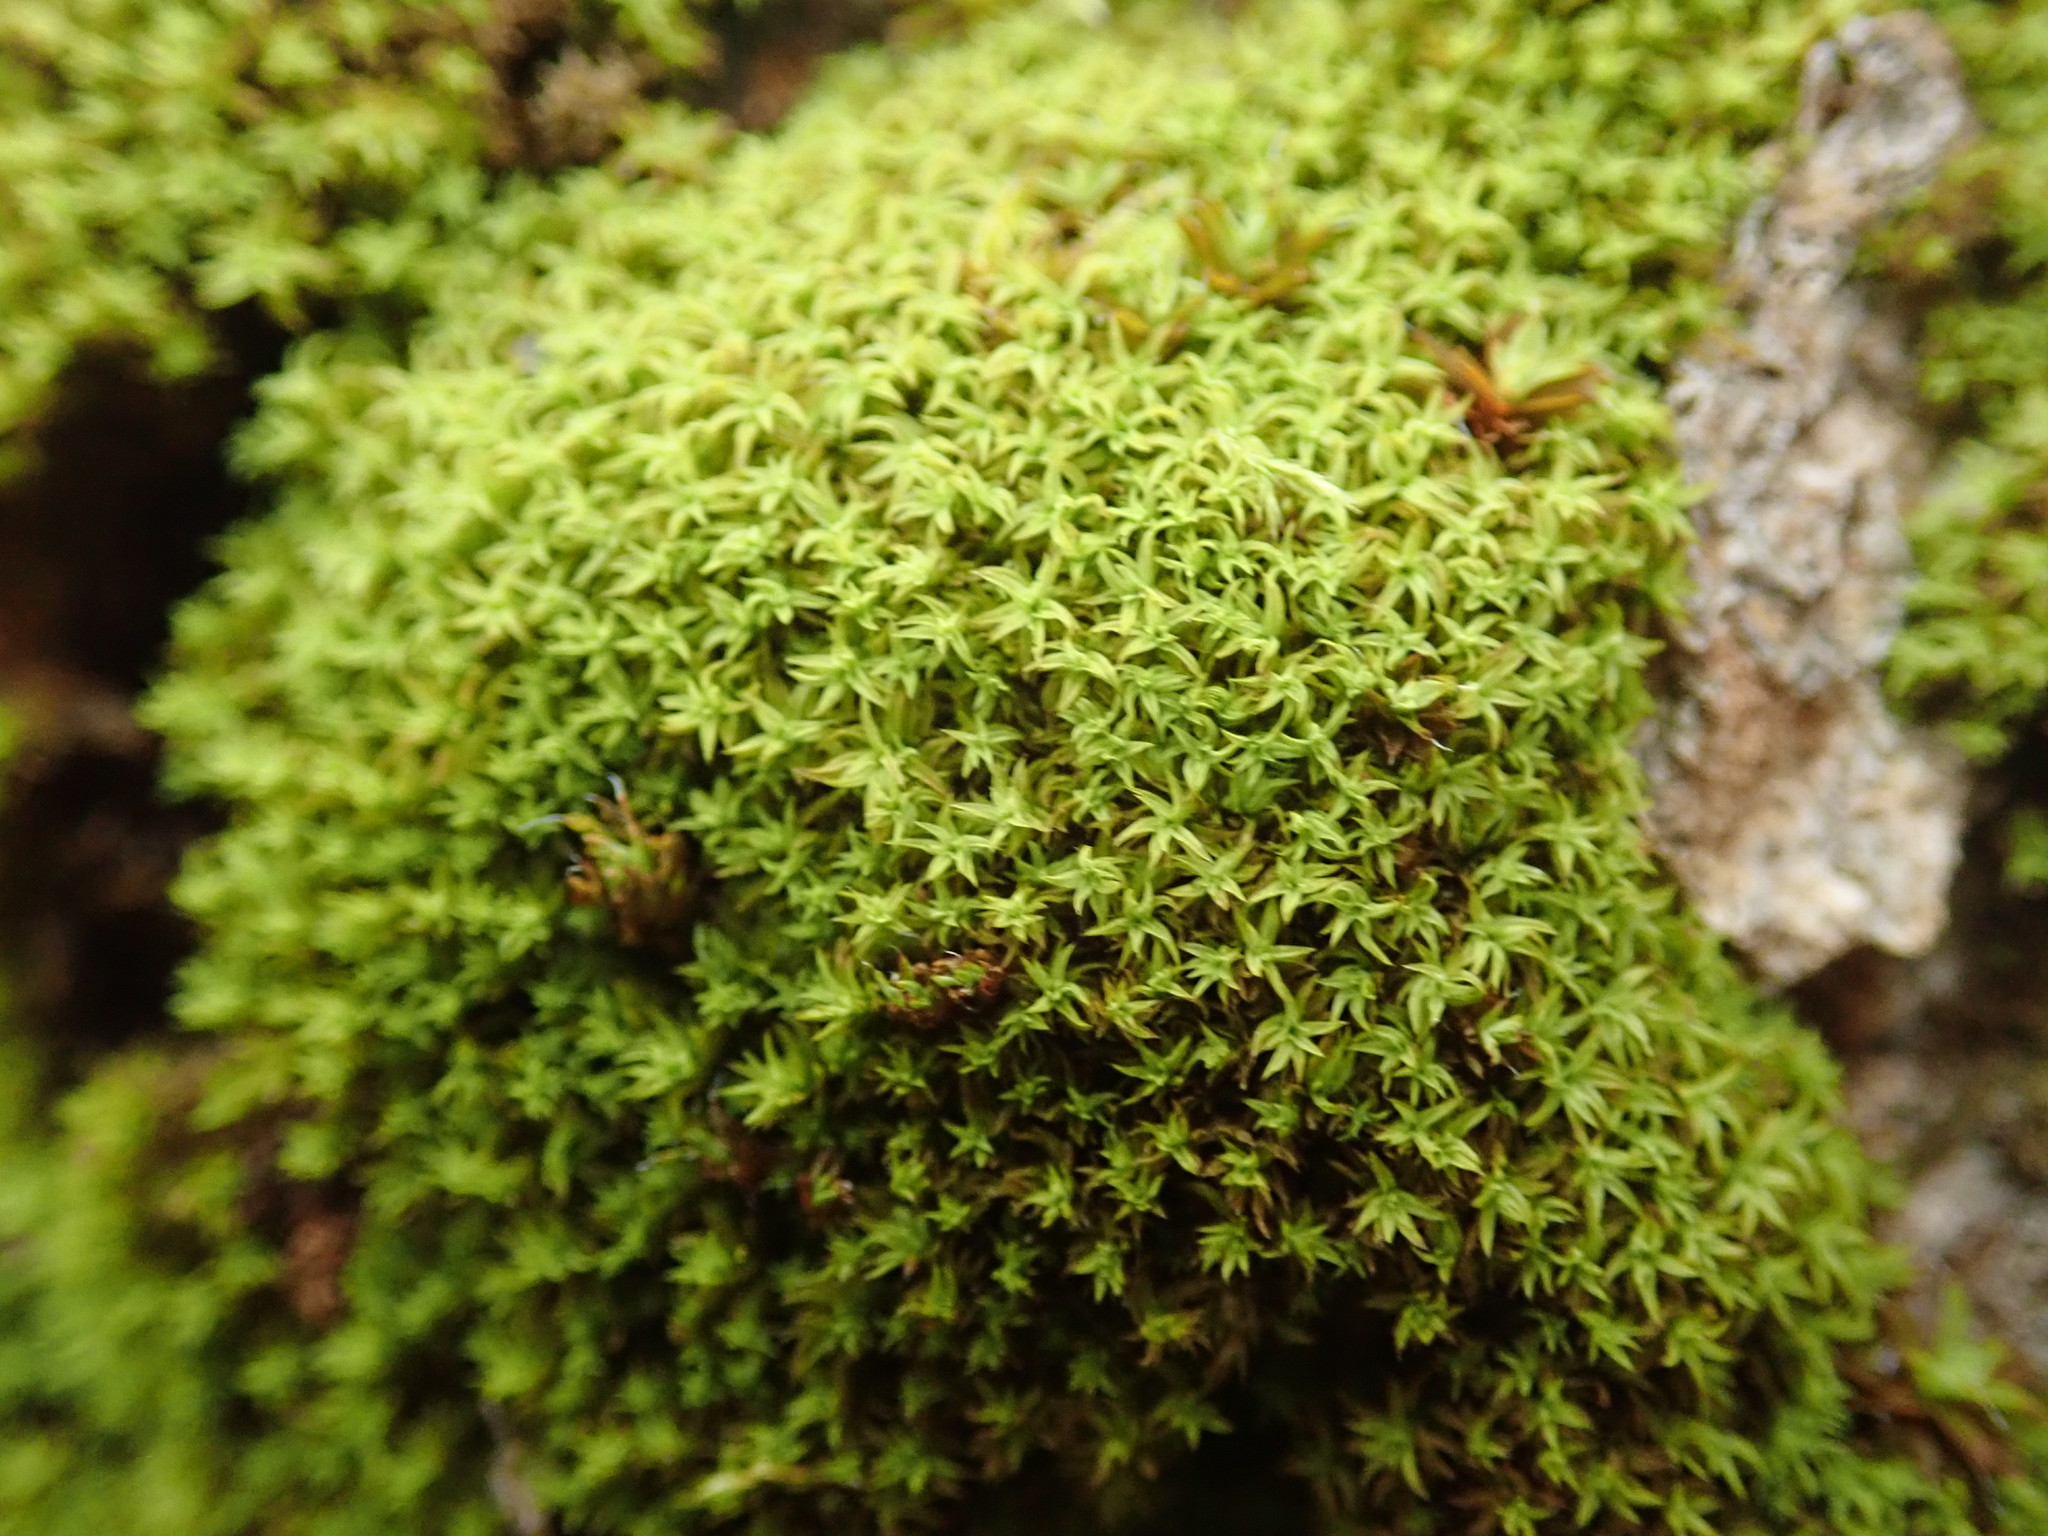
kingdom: Plantae
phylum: Bryophyta
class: Bryopsida
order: Orthotrichales
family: Orthotrichaceae
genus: Zygodon
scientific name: Zygodon rupestris
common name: Park yoke moss
